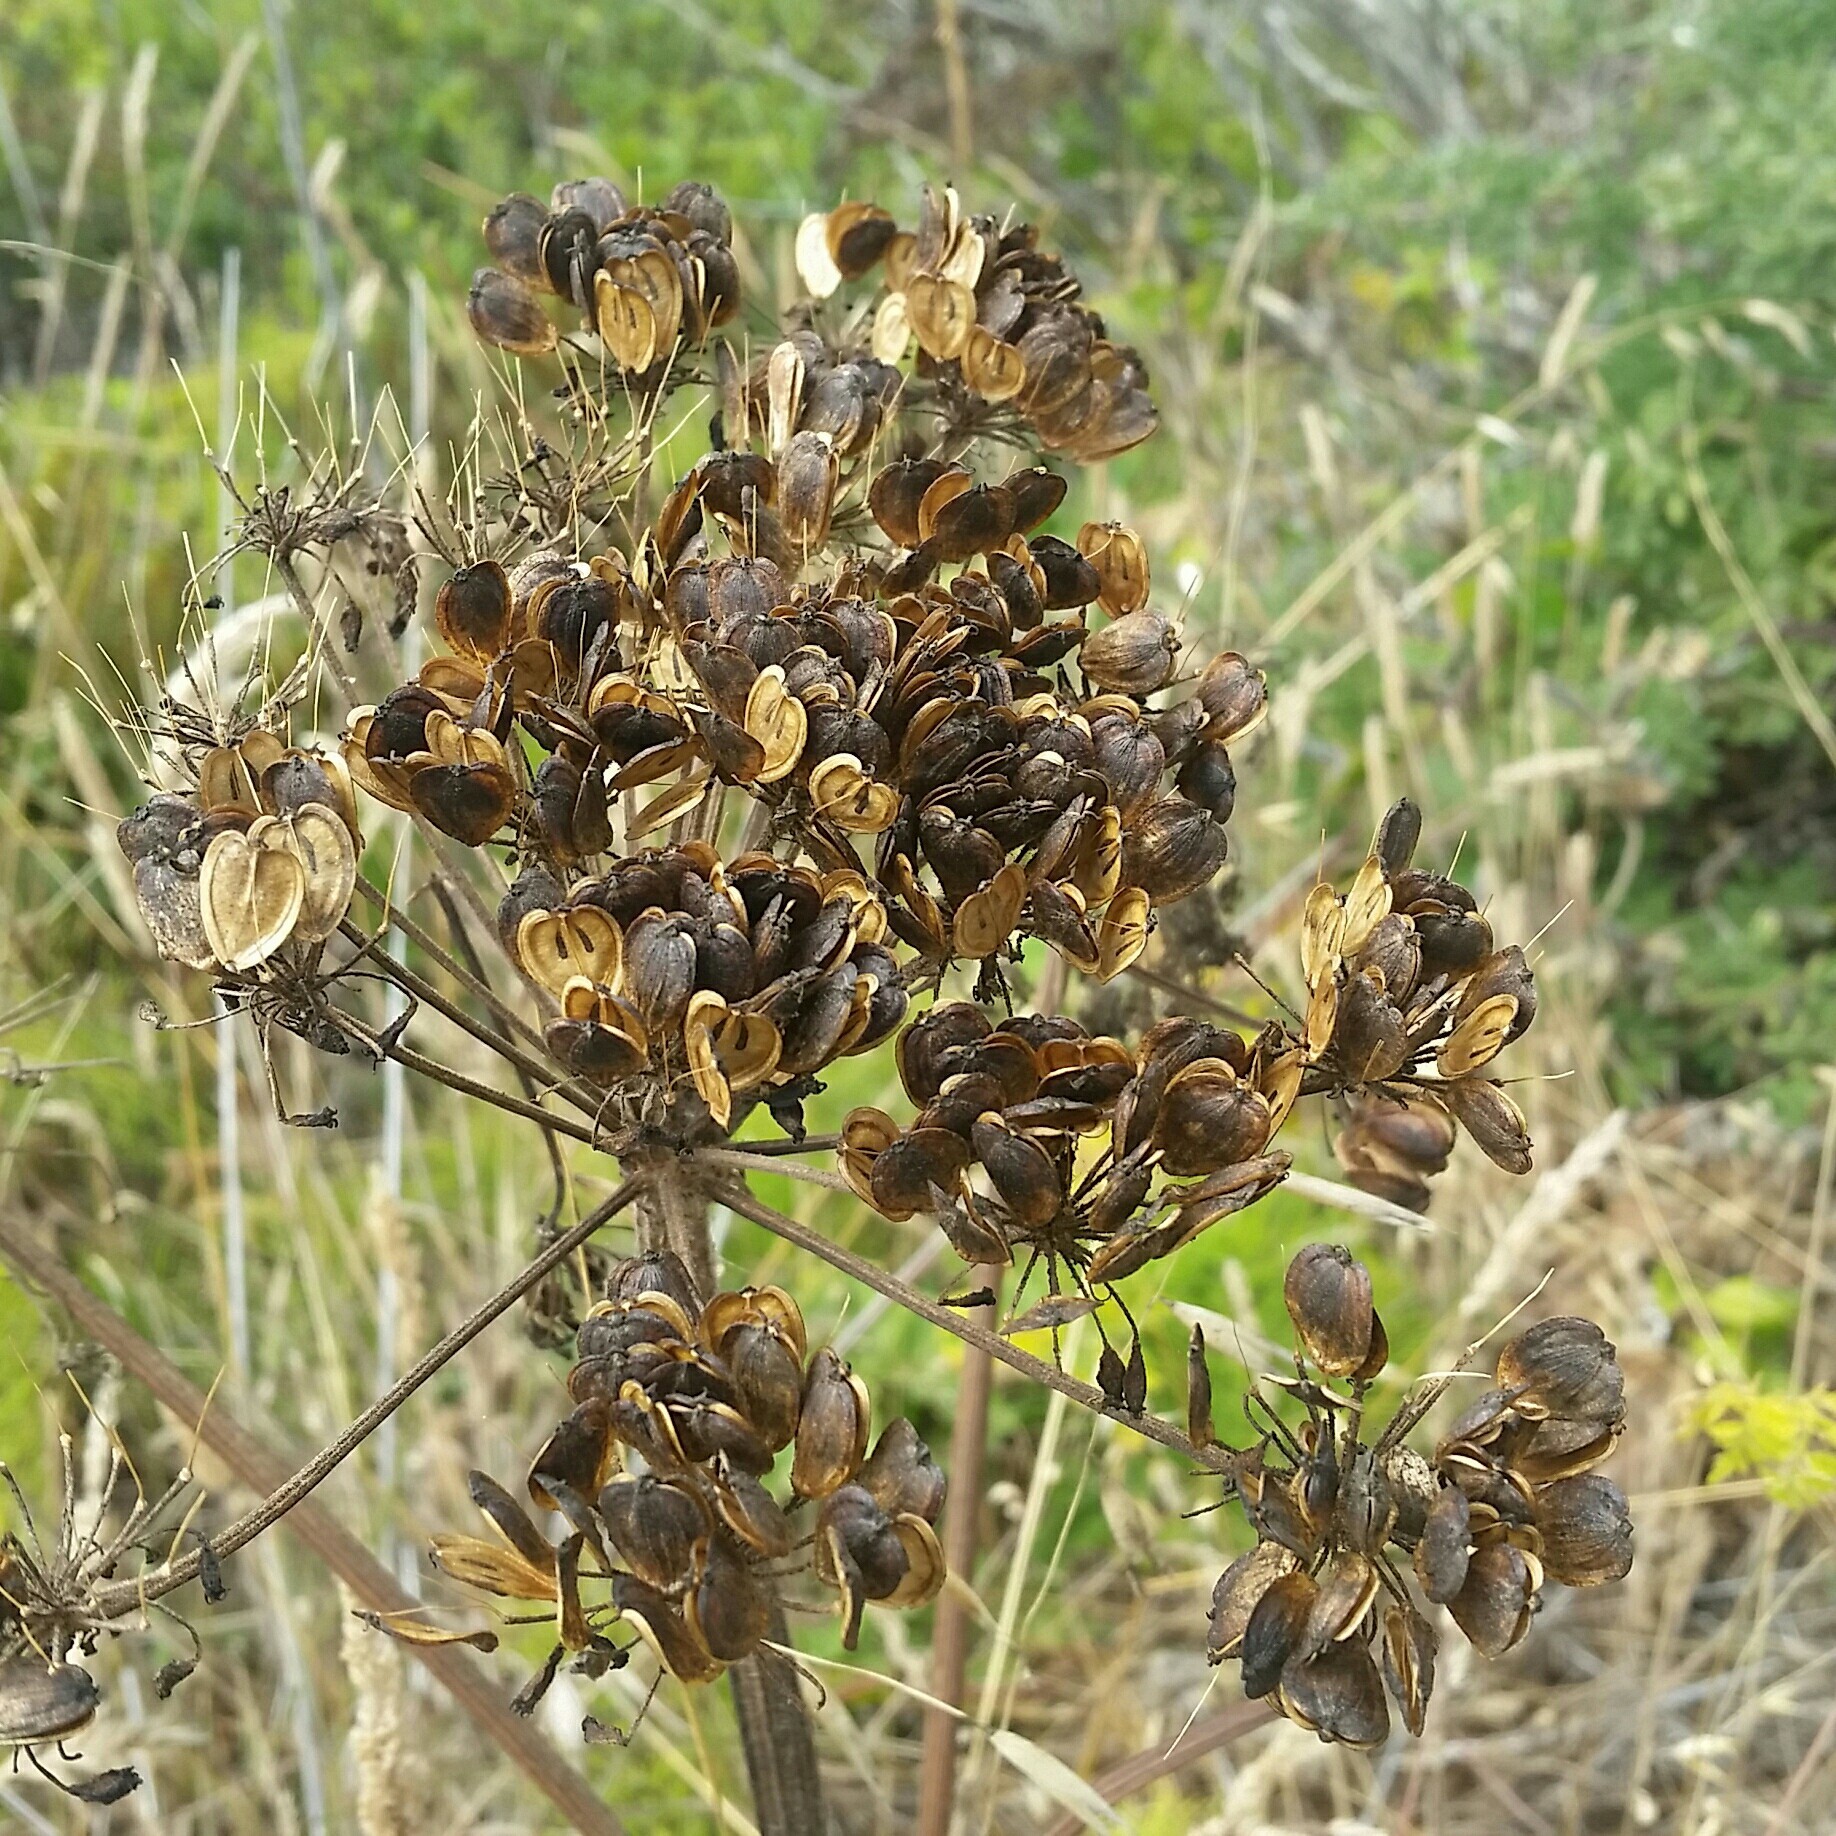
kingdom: Plantae
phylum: Tracheophyta
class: Magnoliopsida
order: Apiales
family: Apiaceae
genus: Heracleum
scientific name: Heracleum maximum
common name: American cow parsnip
